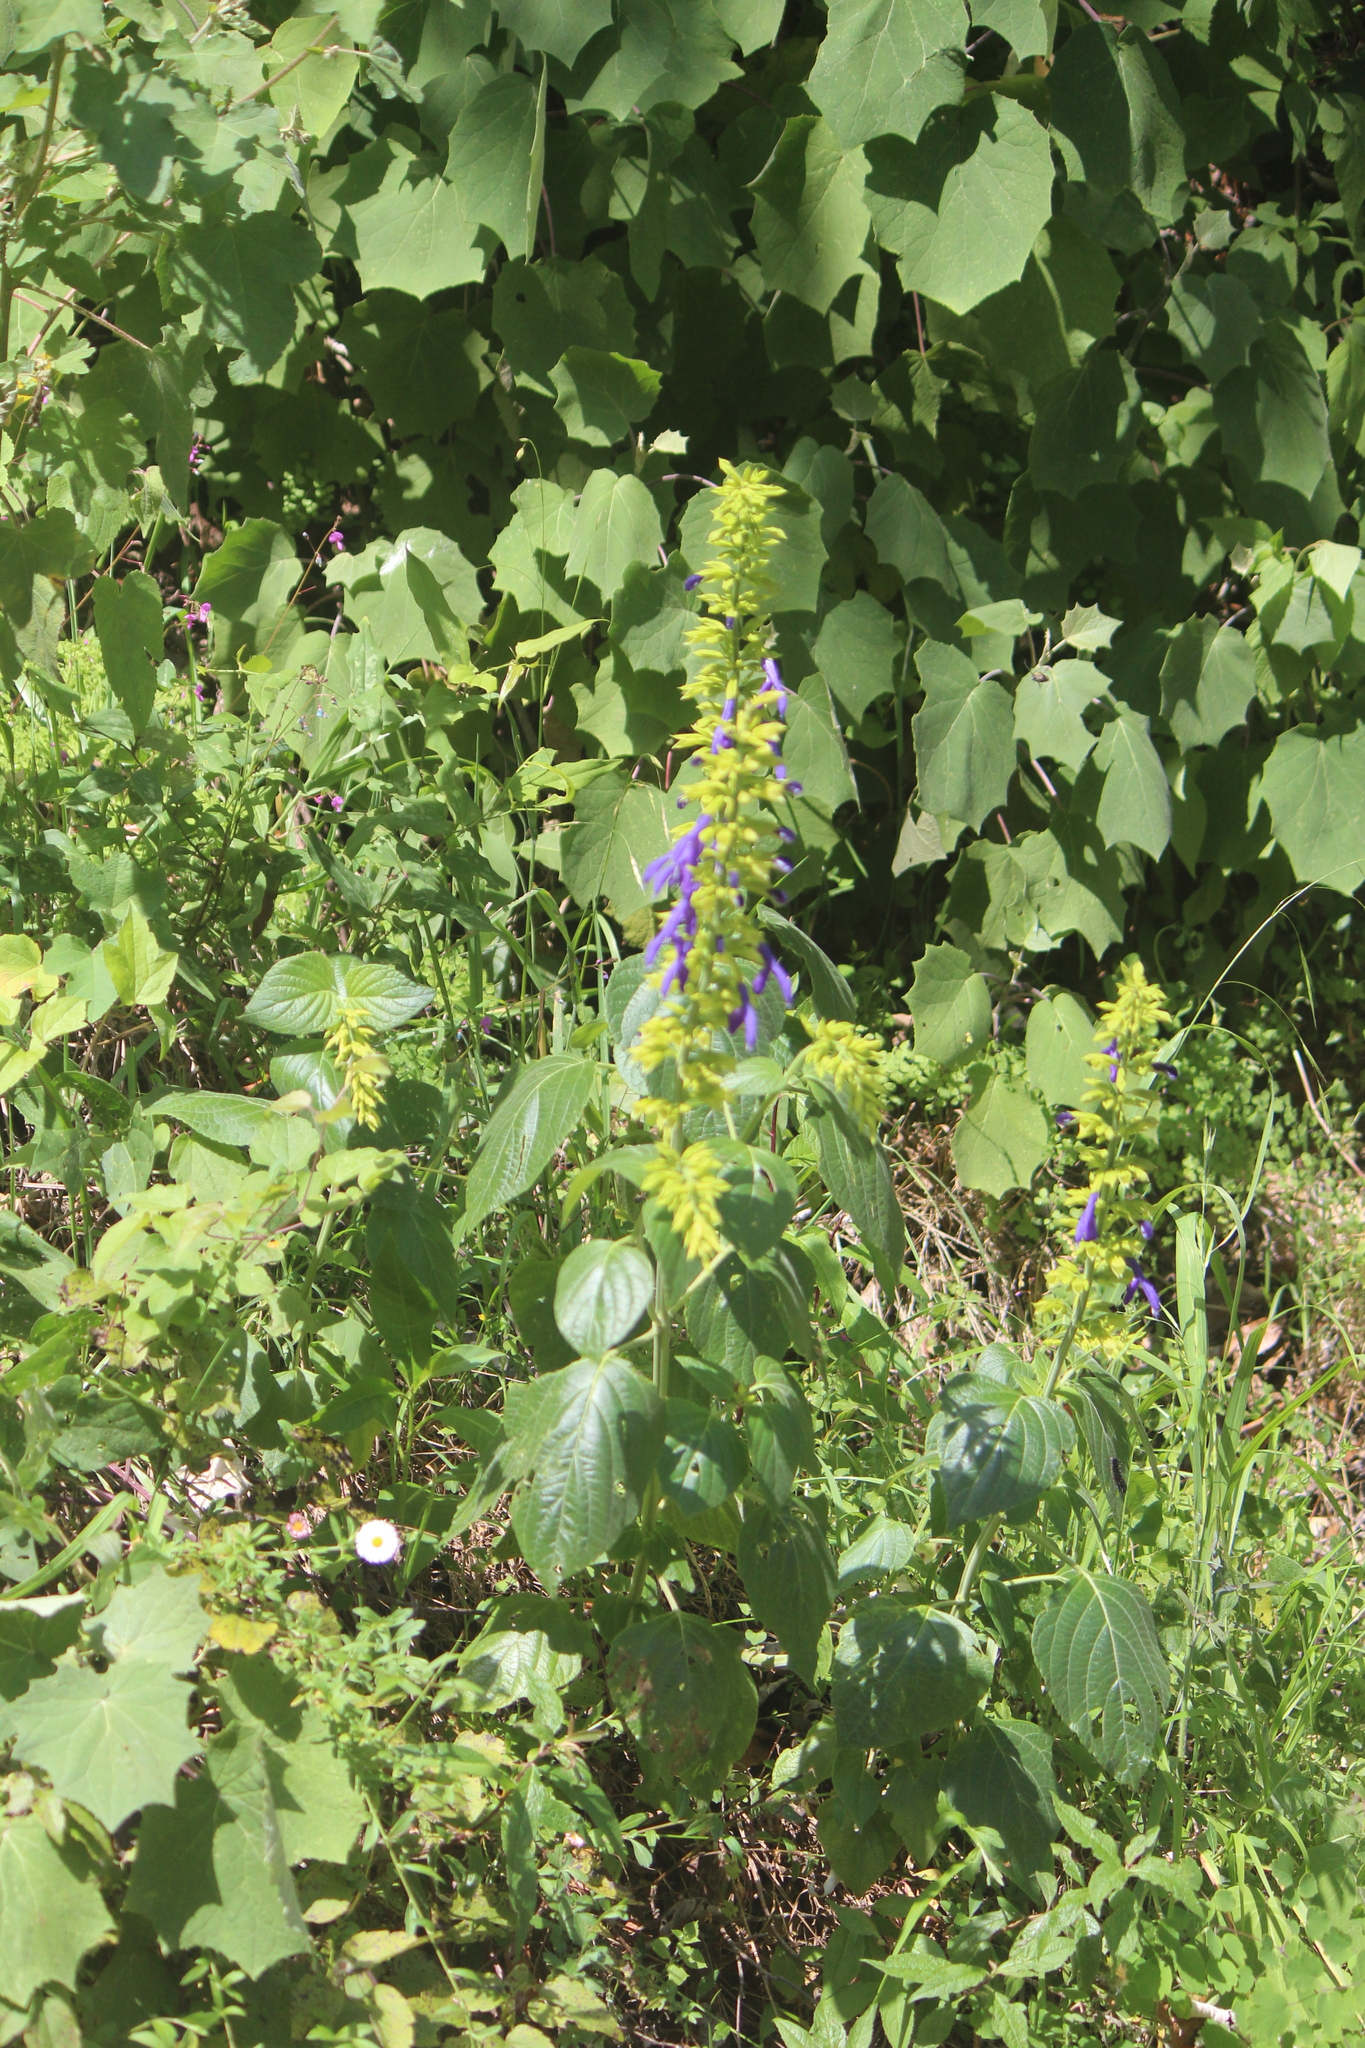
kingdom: Plantae
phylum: Tracheophyta
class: Magnoliopsida
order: Lamiales
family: Lamiaceae
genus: Salvia
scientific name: Salvia mexicana
